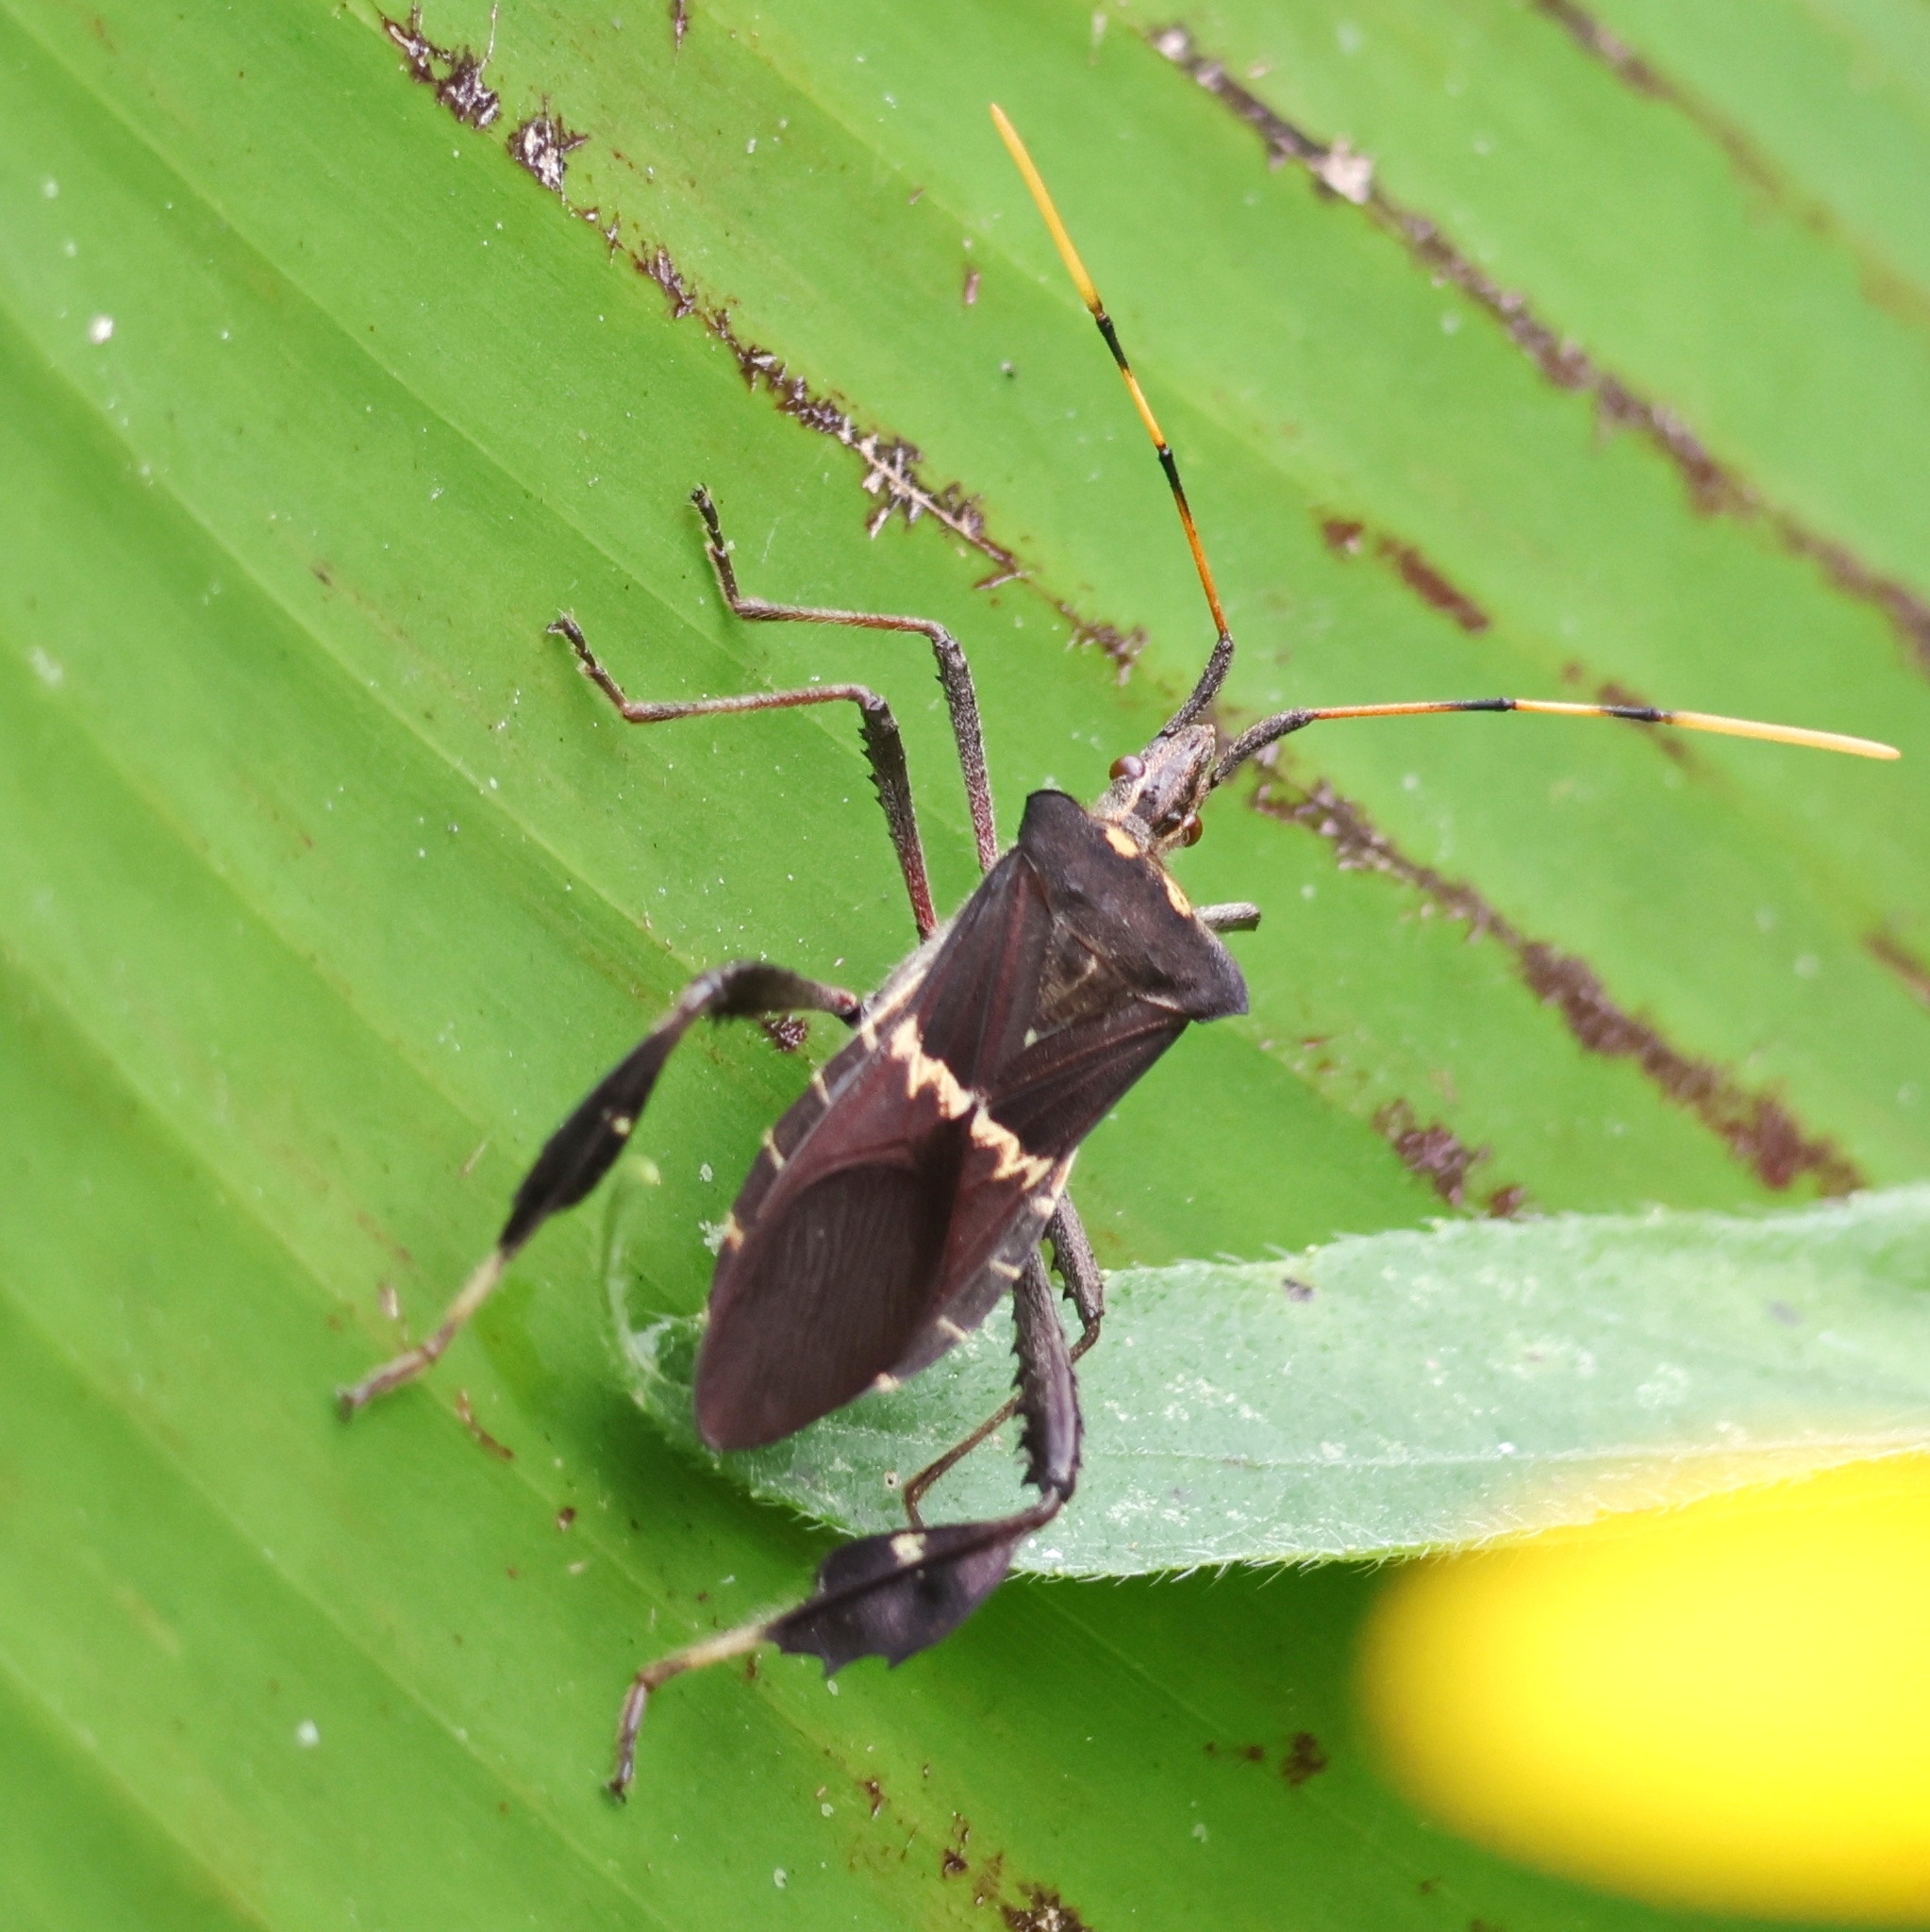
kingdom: Animalia
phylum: Arthropoda
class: Insecta
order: Hemiptera
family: Coreidae
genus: Leptoglossus
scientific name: Leptoglossus zonatus
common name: Large-legged bug
